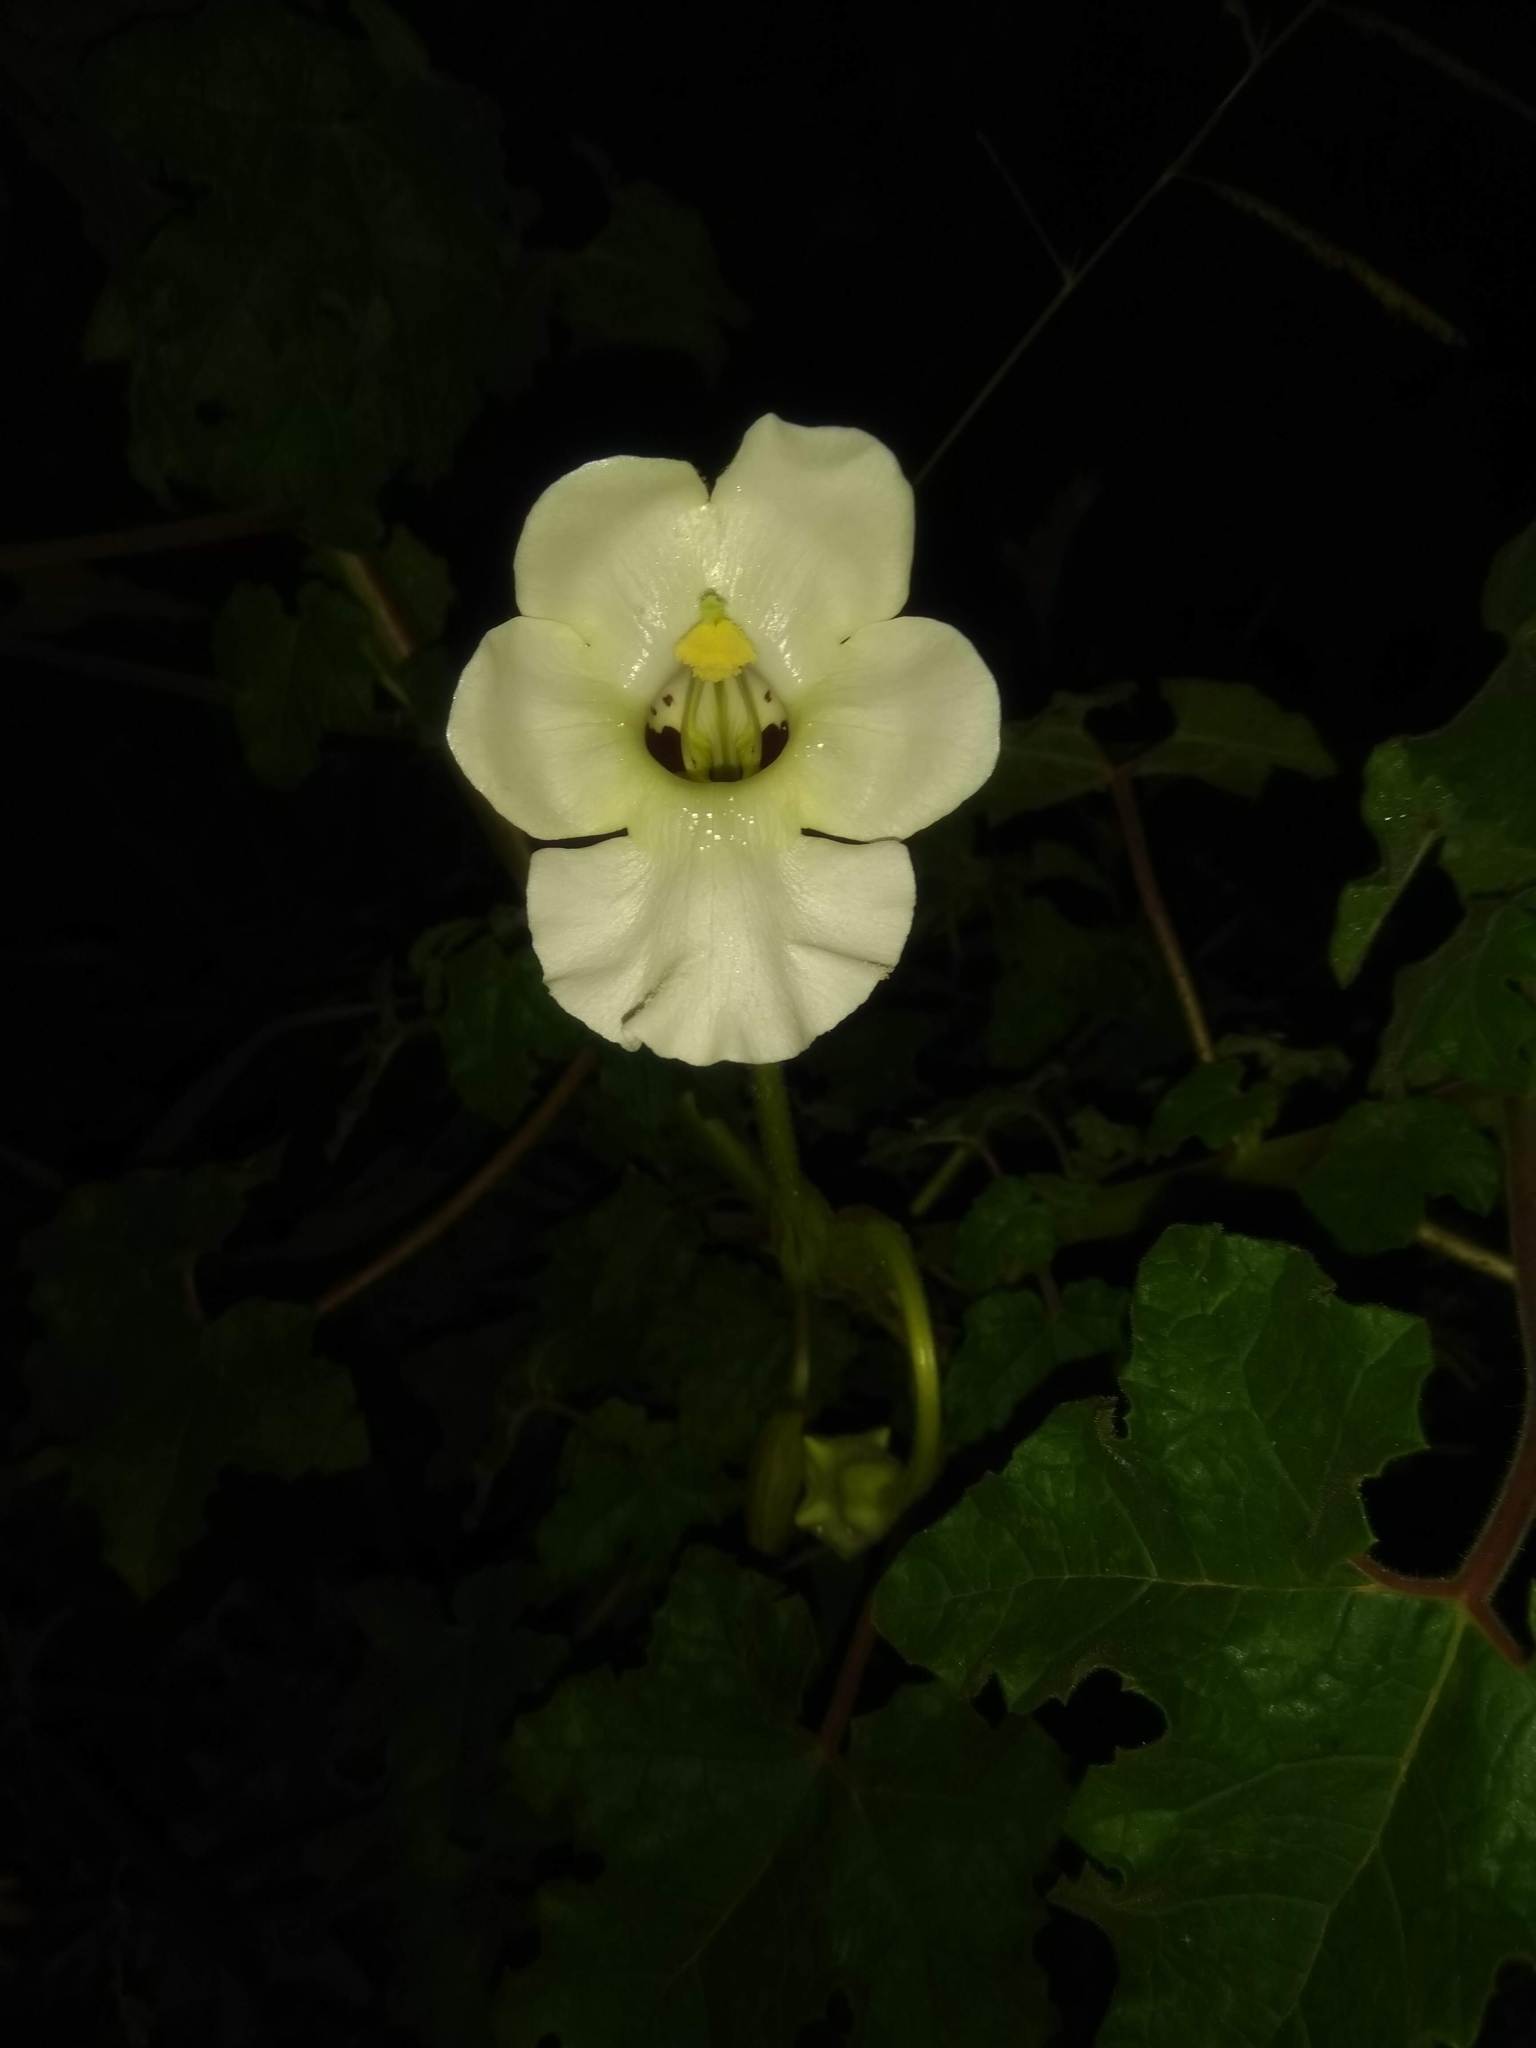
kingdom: Plantae
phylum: Tracheophyta
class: Magnoliopsida
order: Lamiales
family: Martyniaceae
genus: Craniolaria
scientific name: Craniolaria annua
